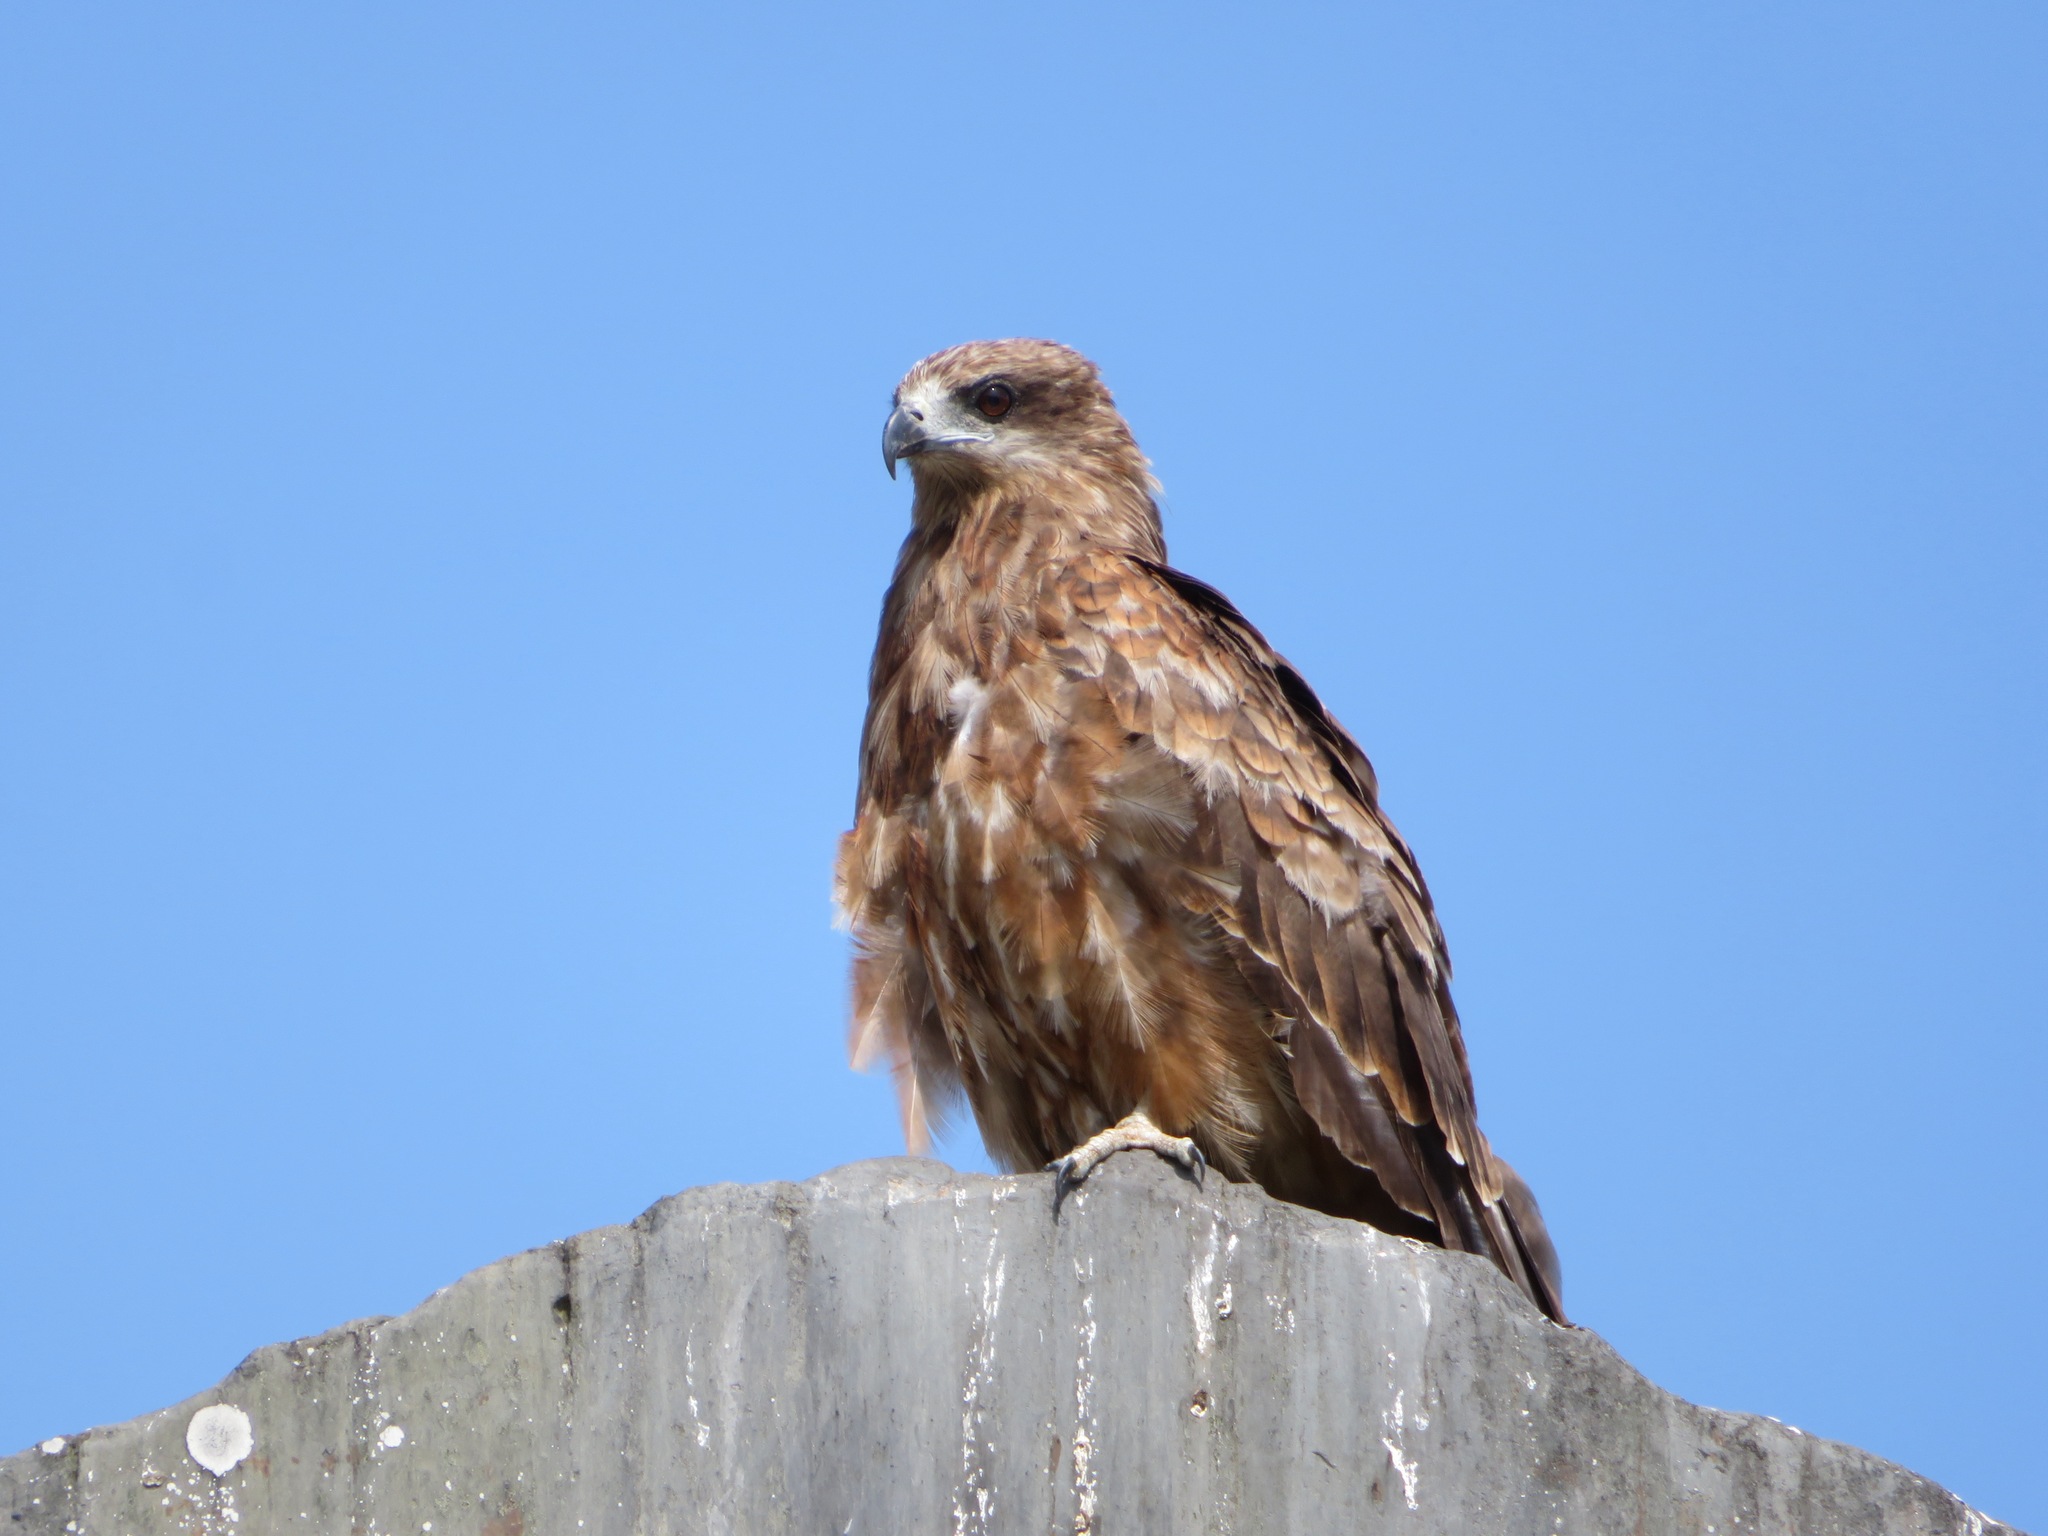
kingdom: Animalia
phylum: Chordata
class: Aves
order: Accipitriformes
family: Accipitridae
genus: Milvus
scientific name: Milvus migrans
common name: Black kite
